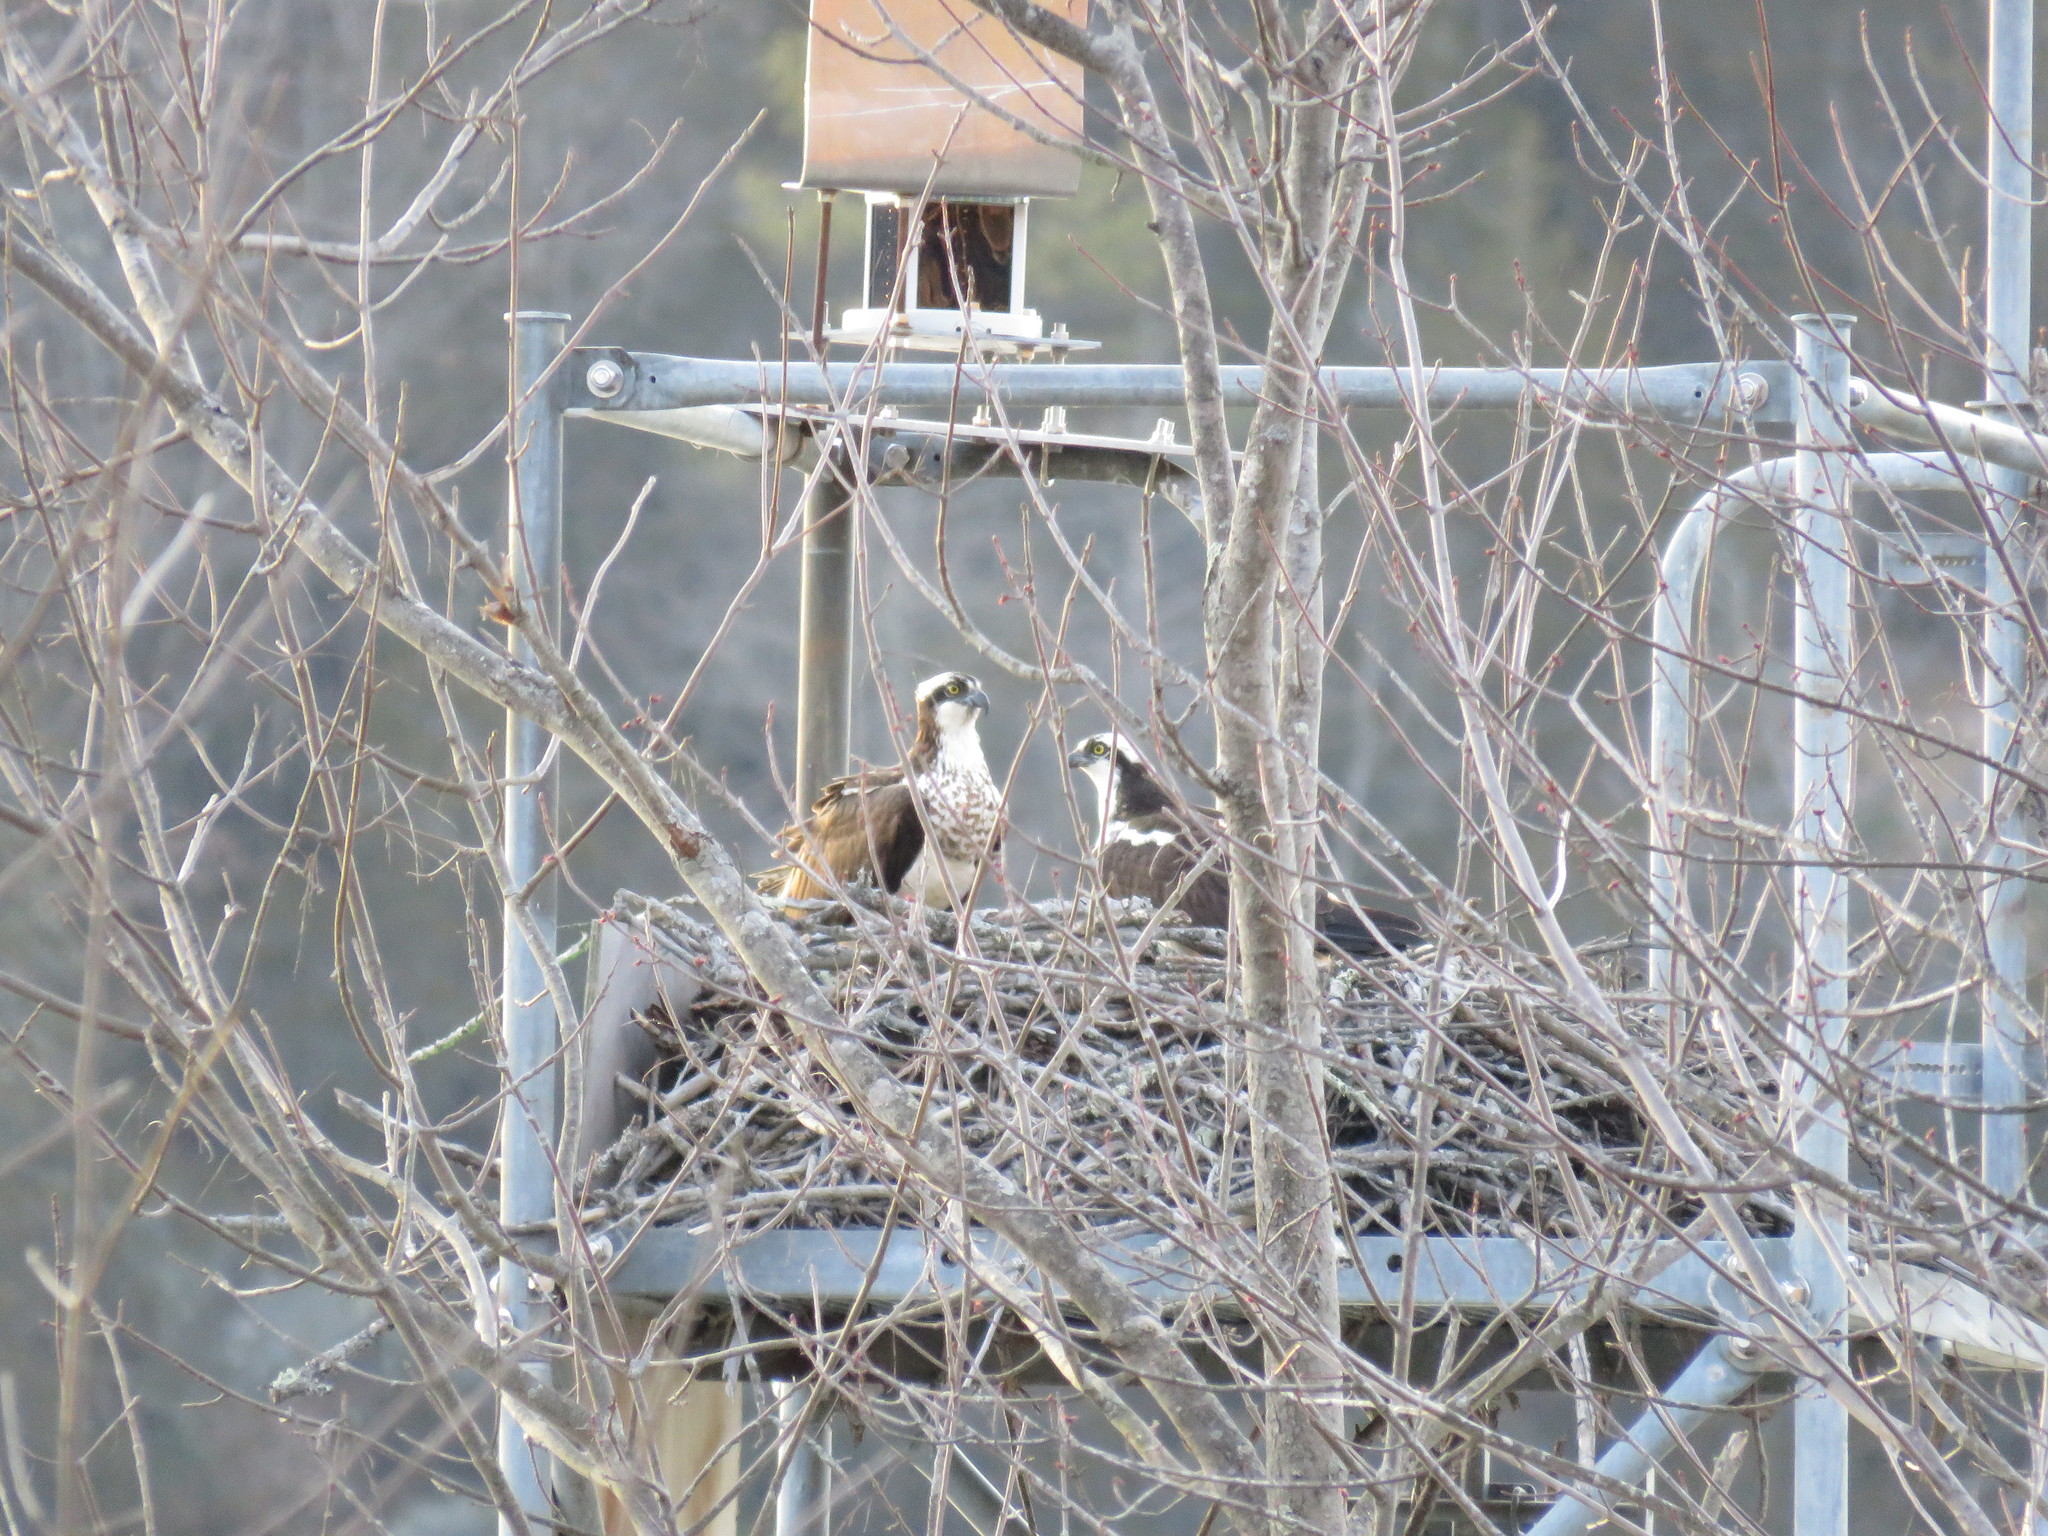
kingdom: Animalia
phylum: Chordata
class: Aves
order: Accipitriformes
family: Pandionidae
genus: Pandion
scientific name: Pandion haliaetus
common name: Osprey
